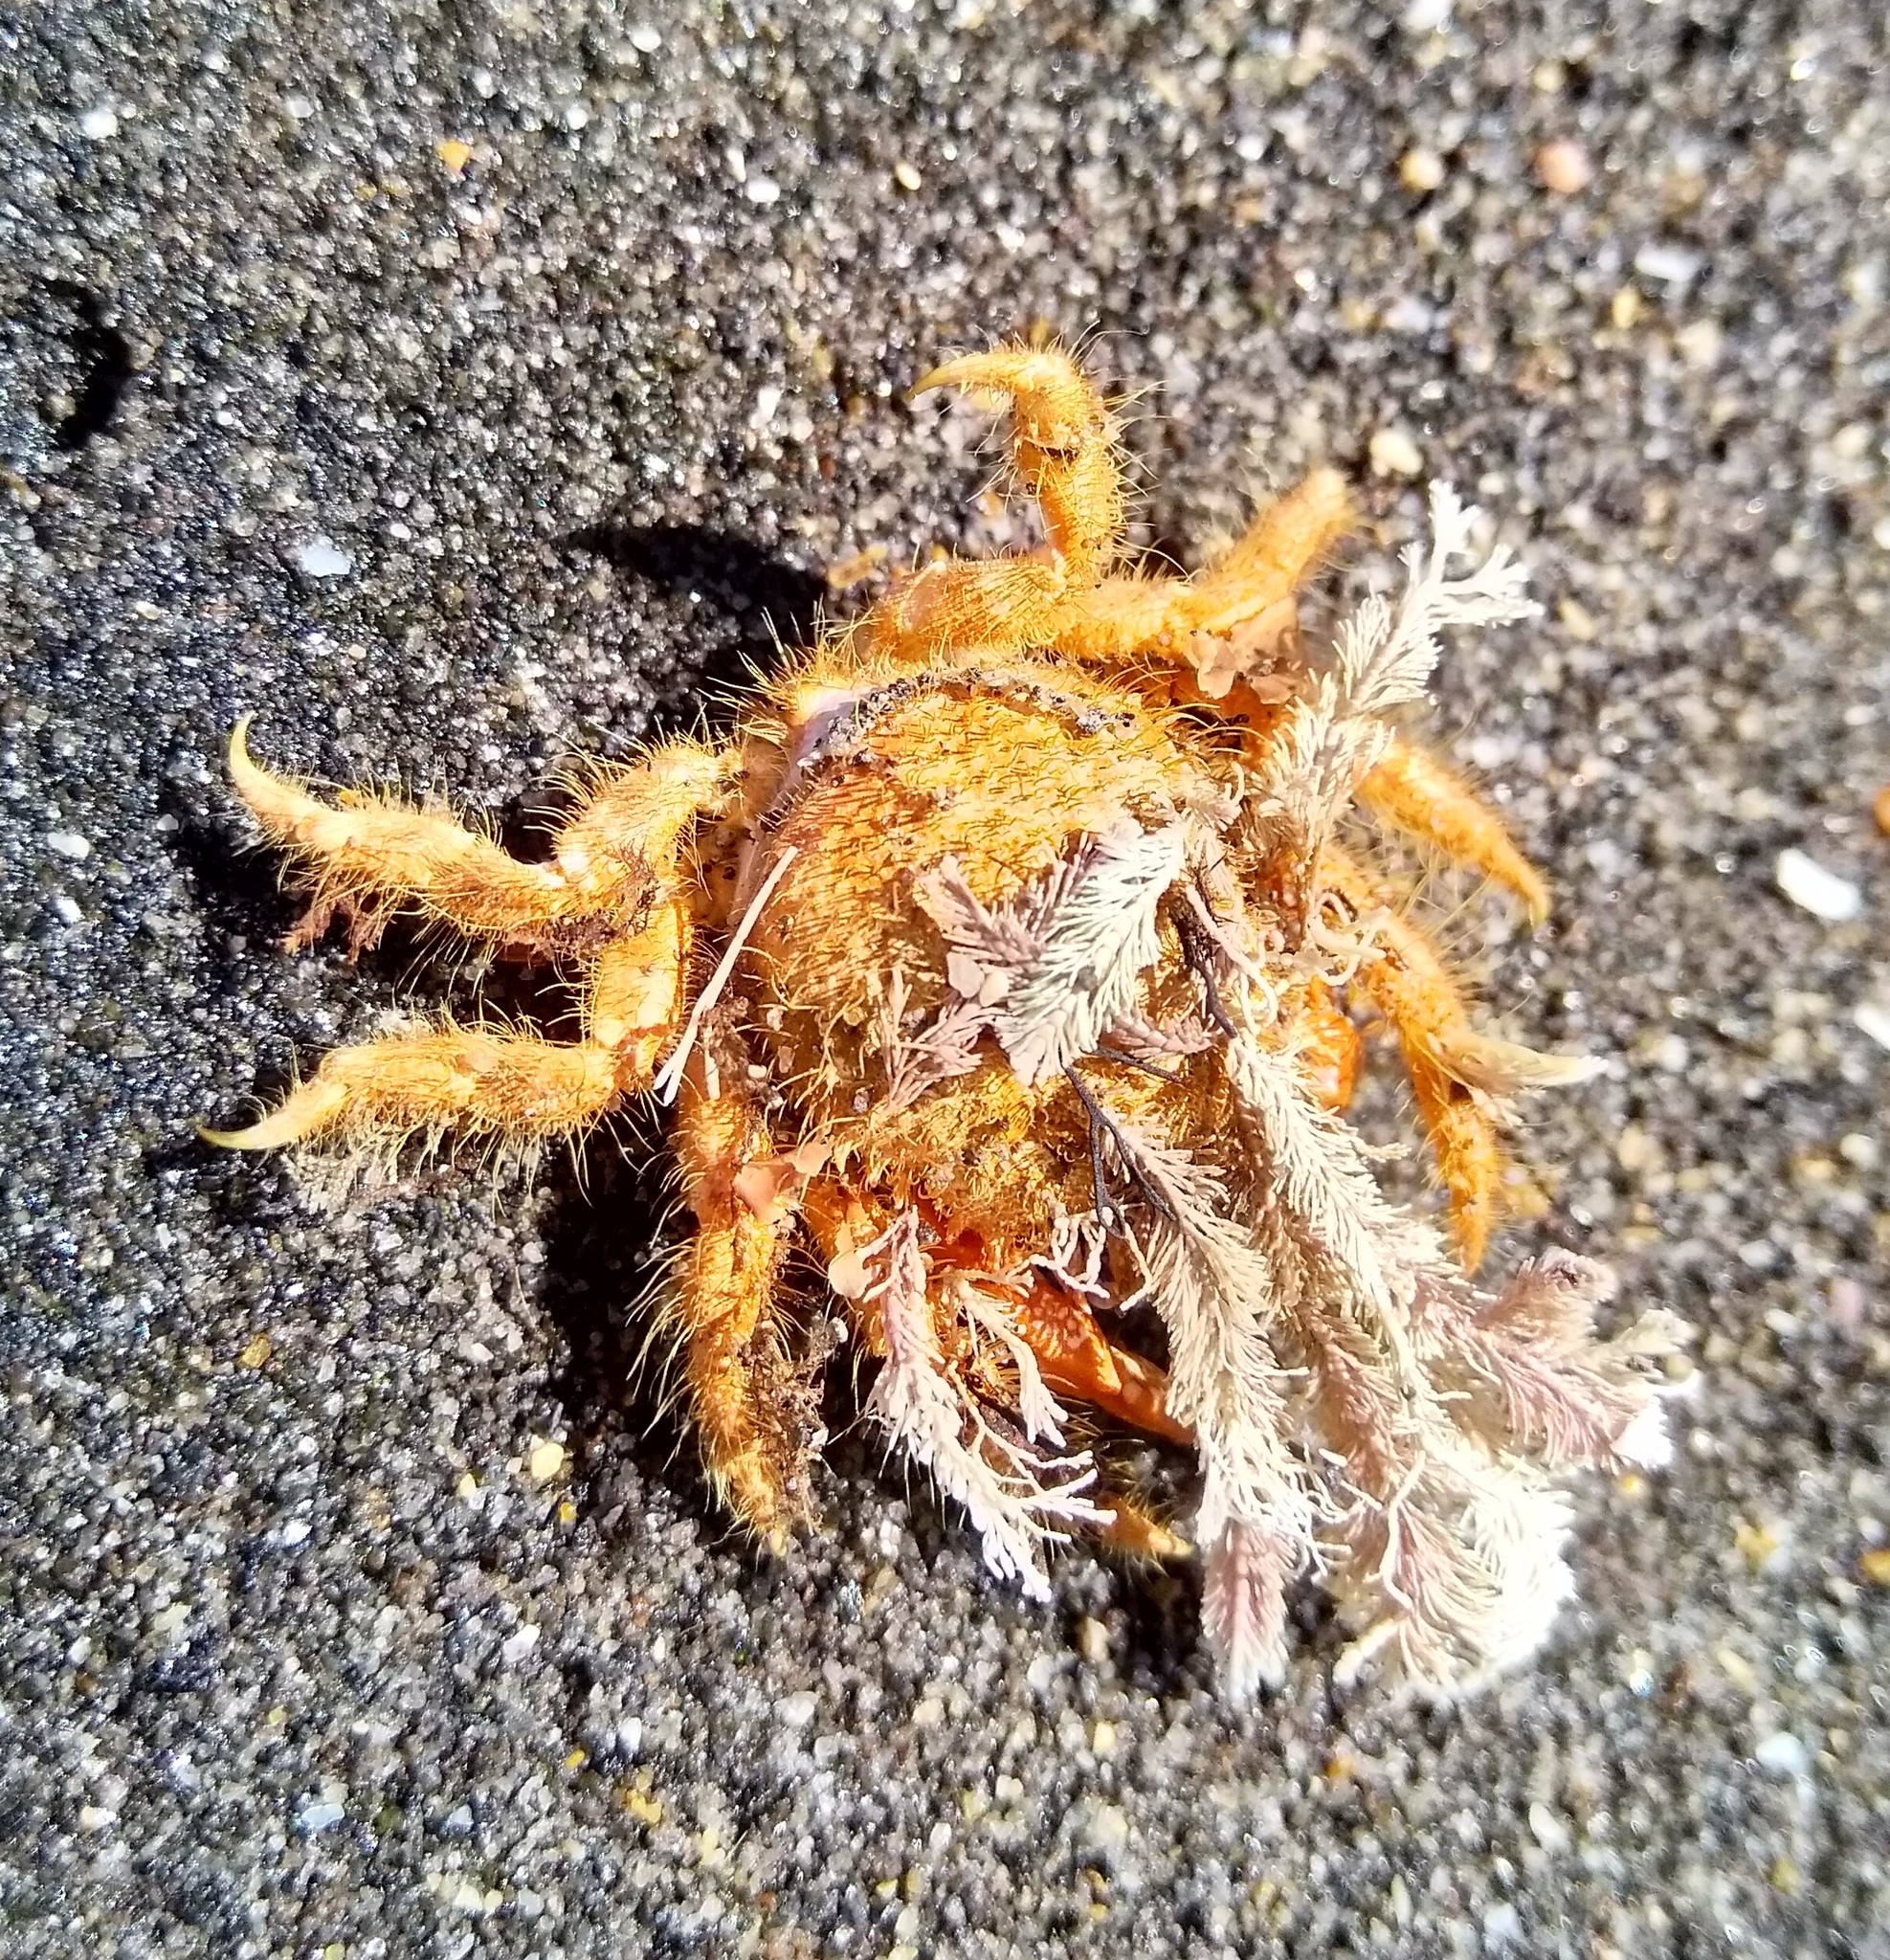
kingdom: Animalia
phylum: Arthropoda
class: Malacostraca
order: Decapoda
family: Majidae
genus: Notomithrax
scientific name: Notomithrax ursus
